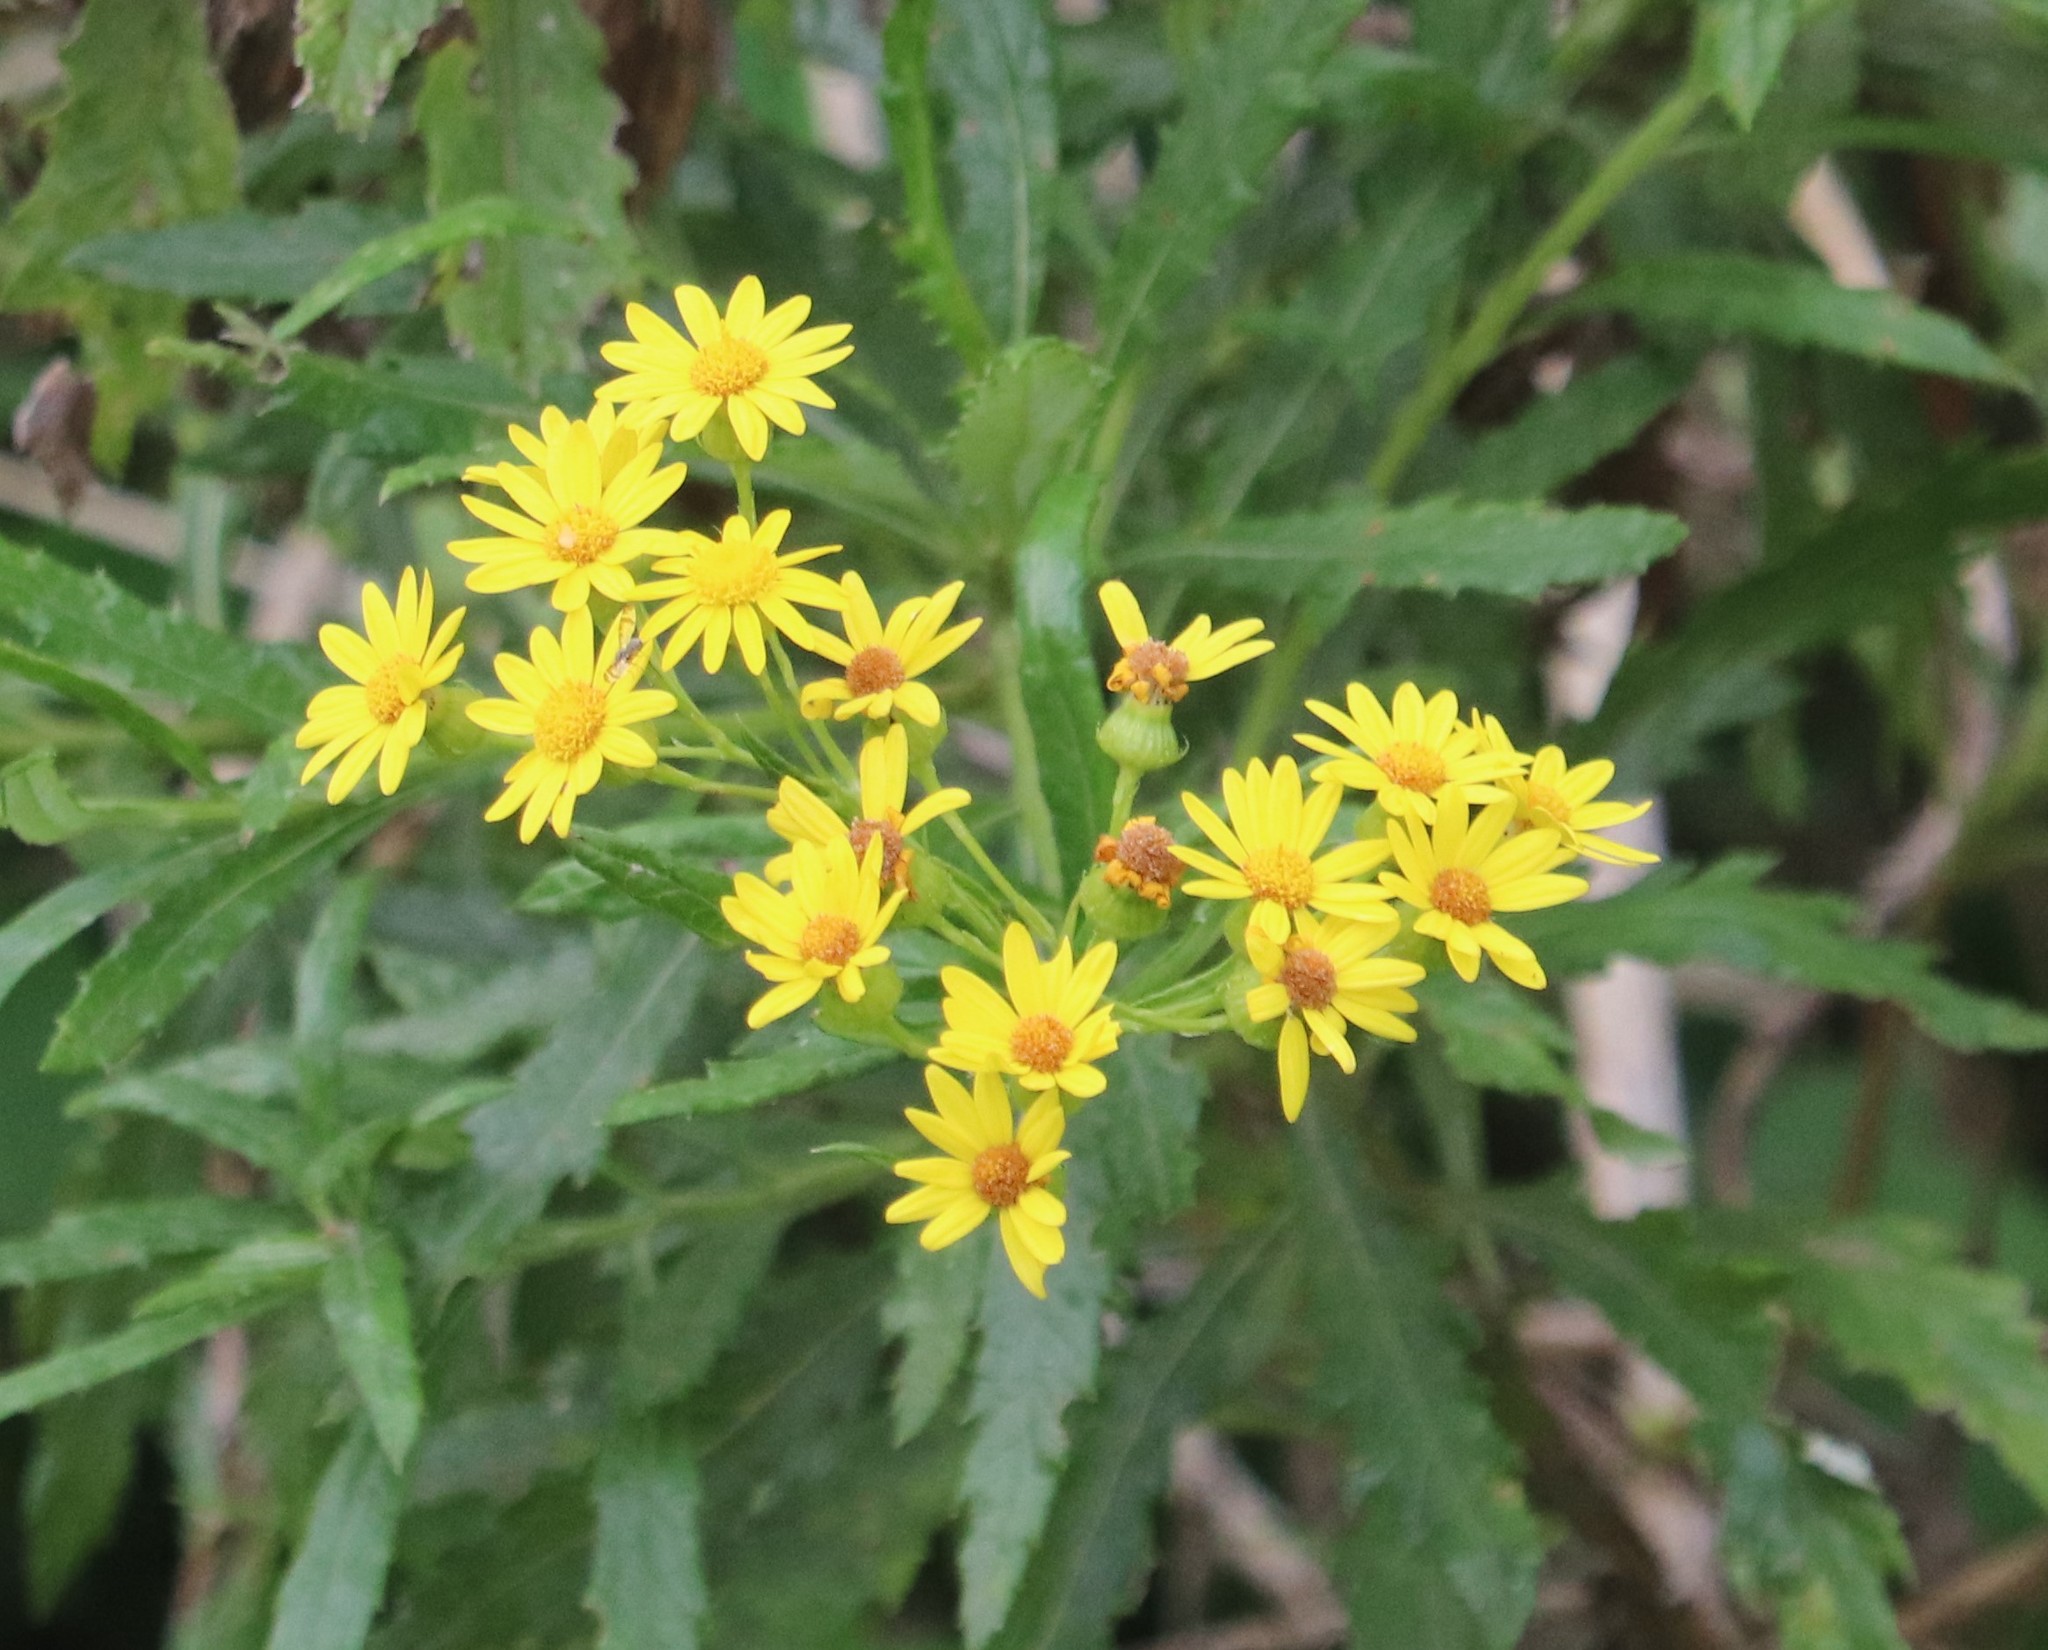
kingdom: Plantae
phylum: Tracheophyta
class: Magnoliopsida
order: Asterales
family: Asteraceae
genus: Senecio
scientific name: Senecio pterophorus
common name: Shoddy ragwort
